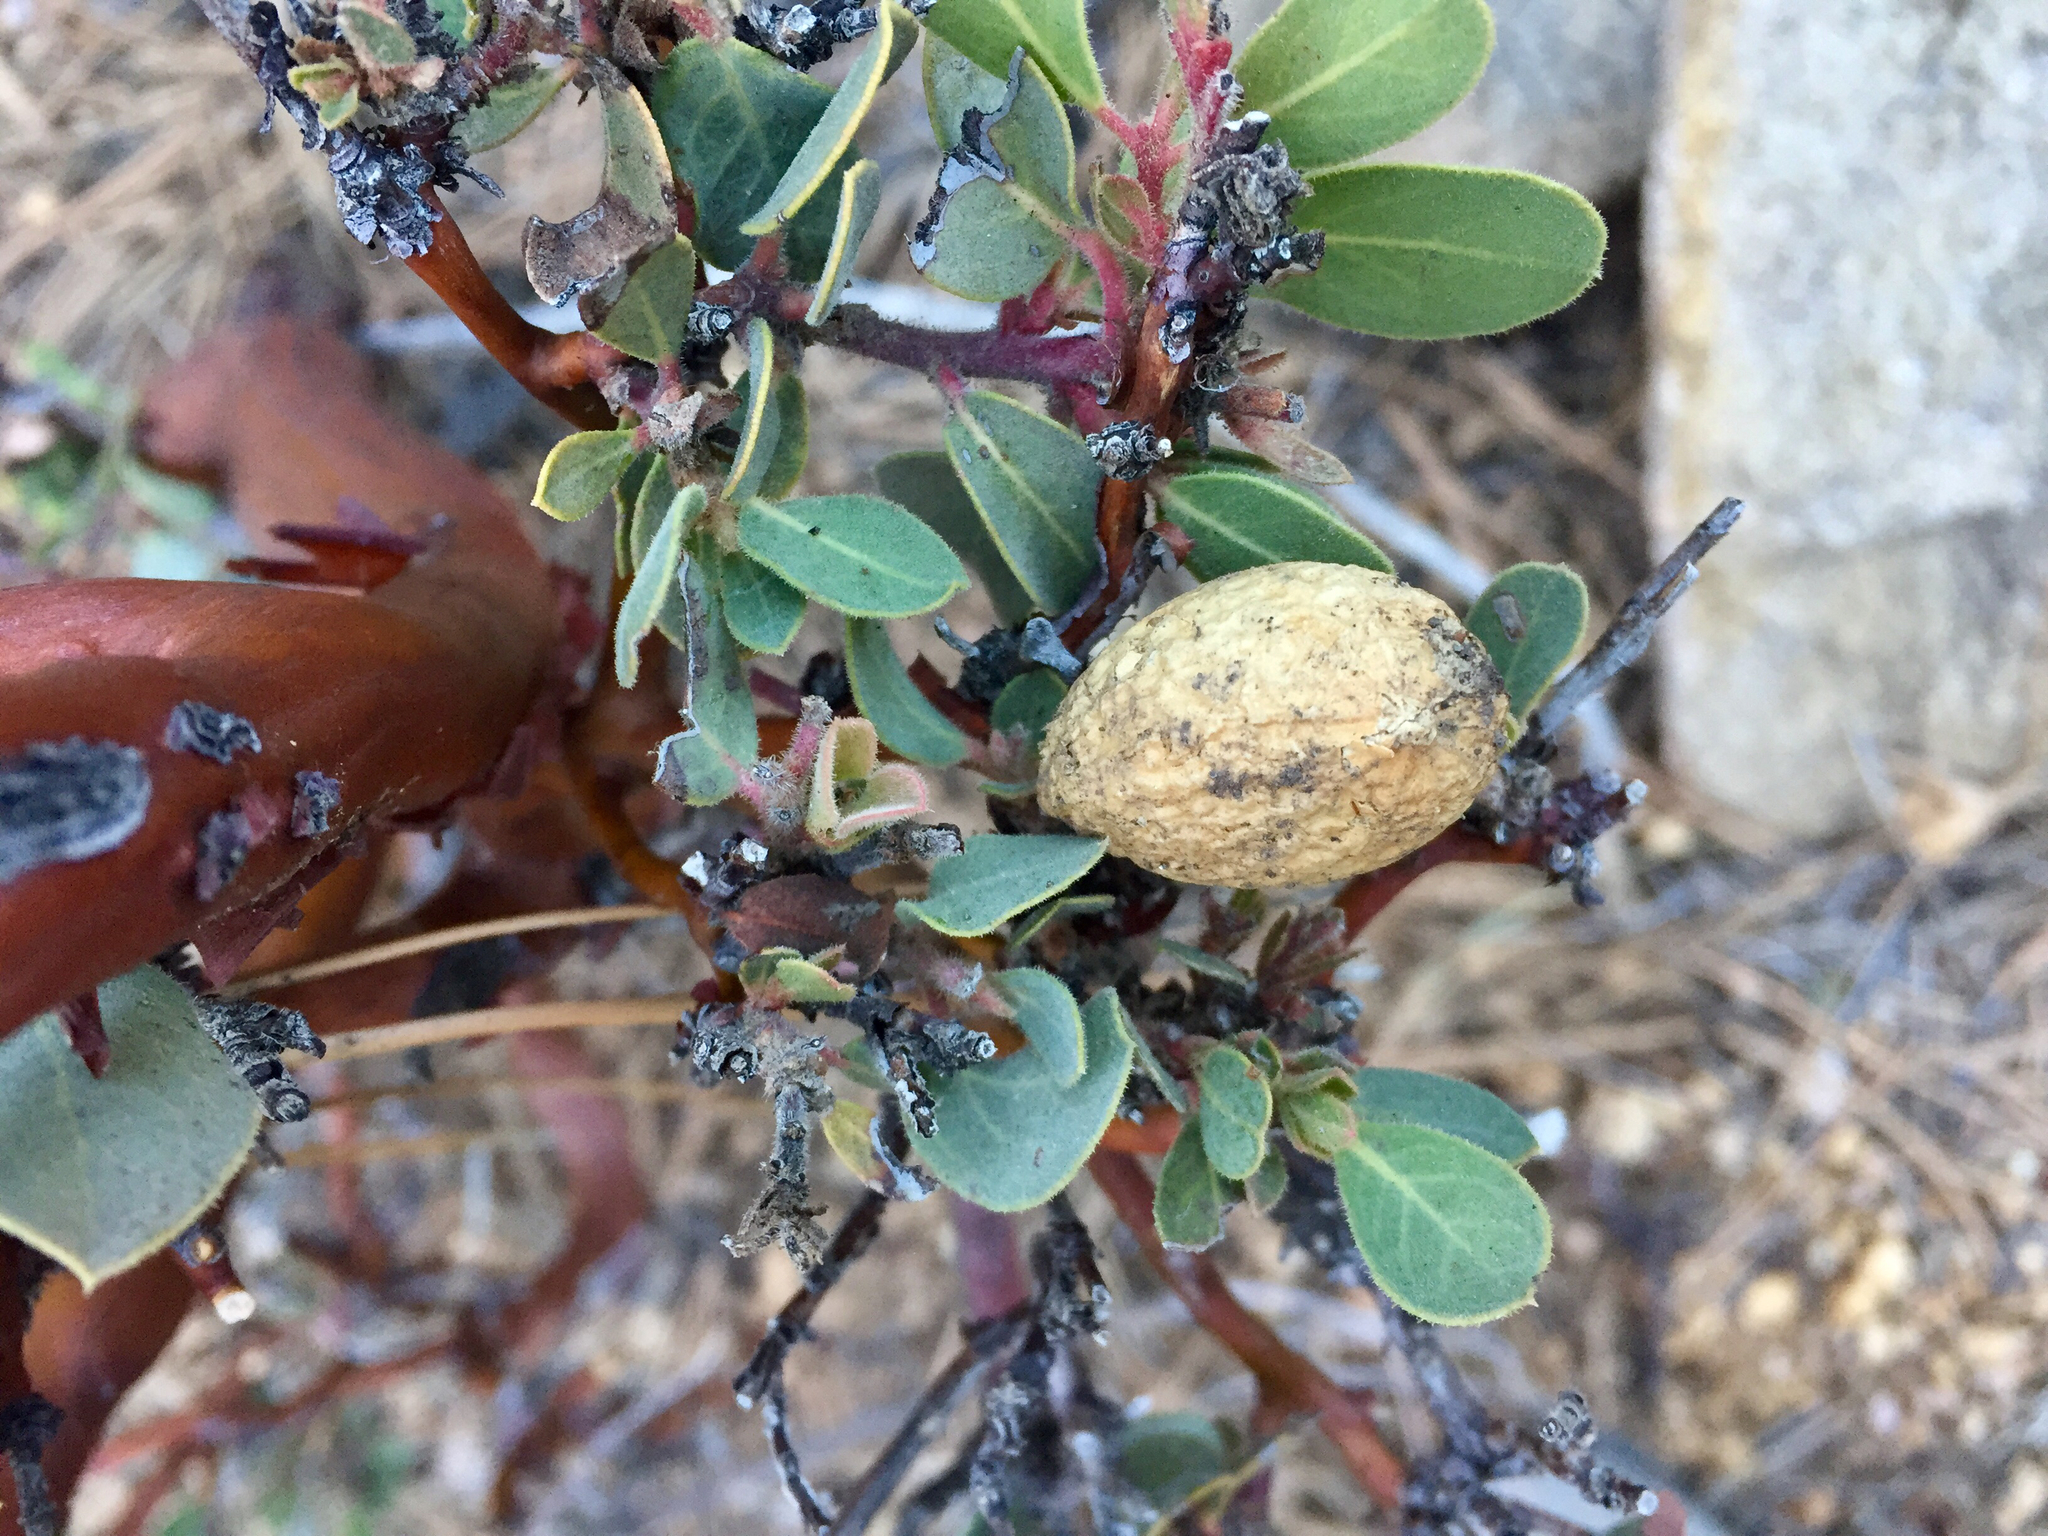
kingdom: Plantae
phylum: Tracheophyta
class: Magnoliopsida
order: Ericales
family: Ericaceae
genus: Arctostaphylos
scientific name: Arctostaphylos pringlei
